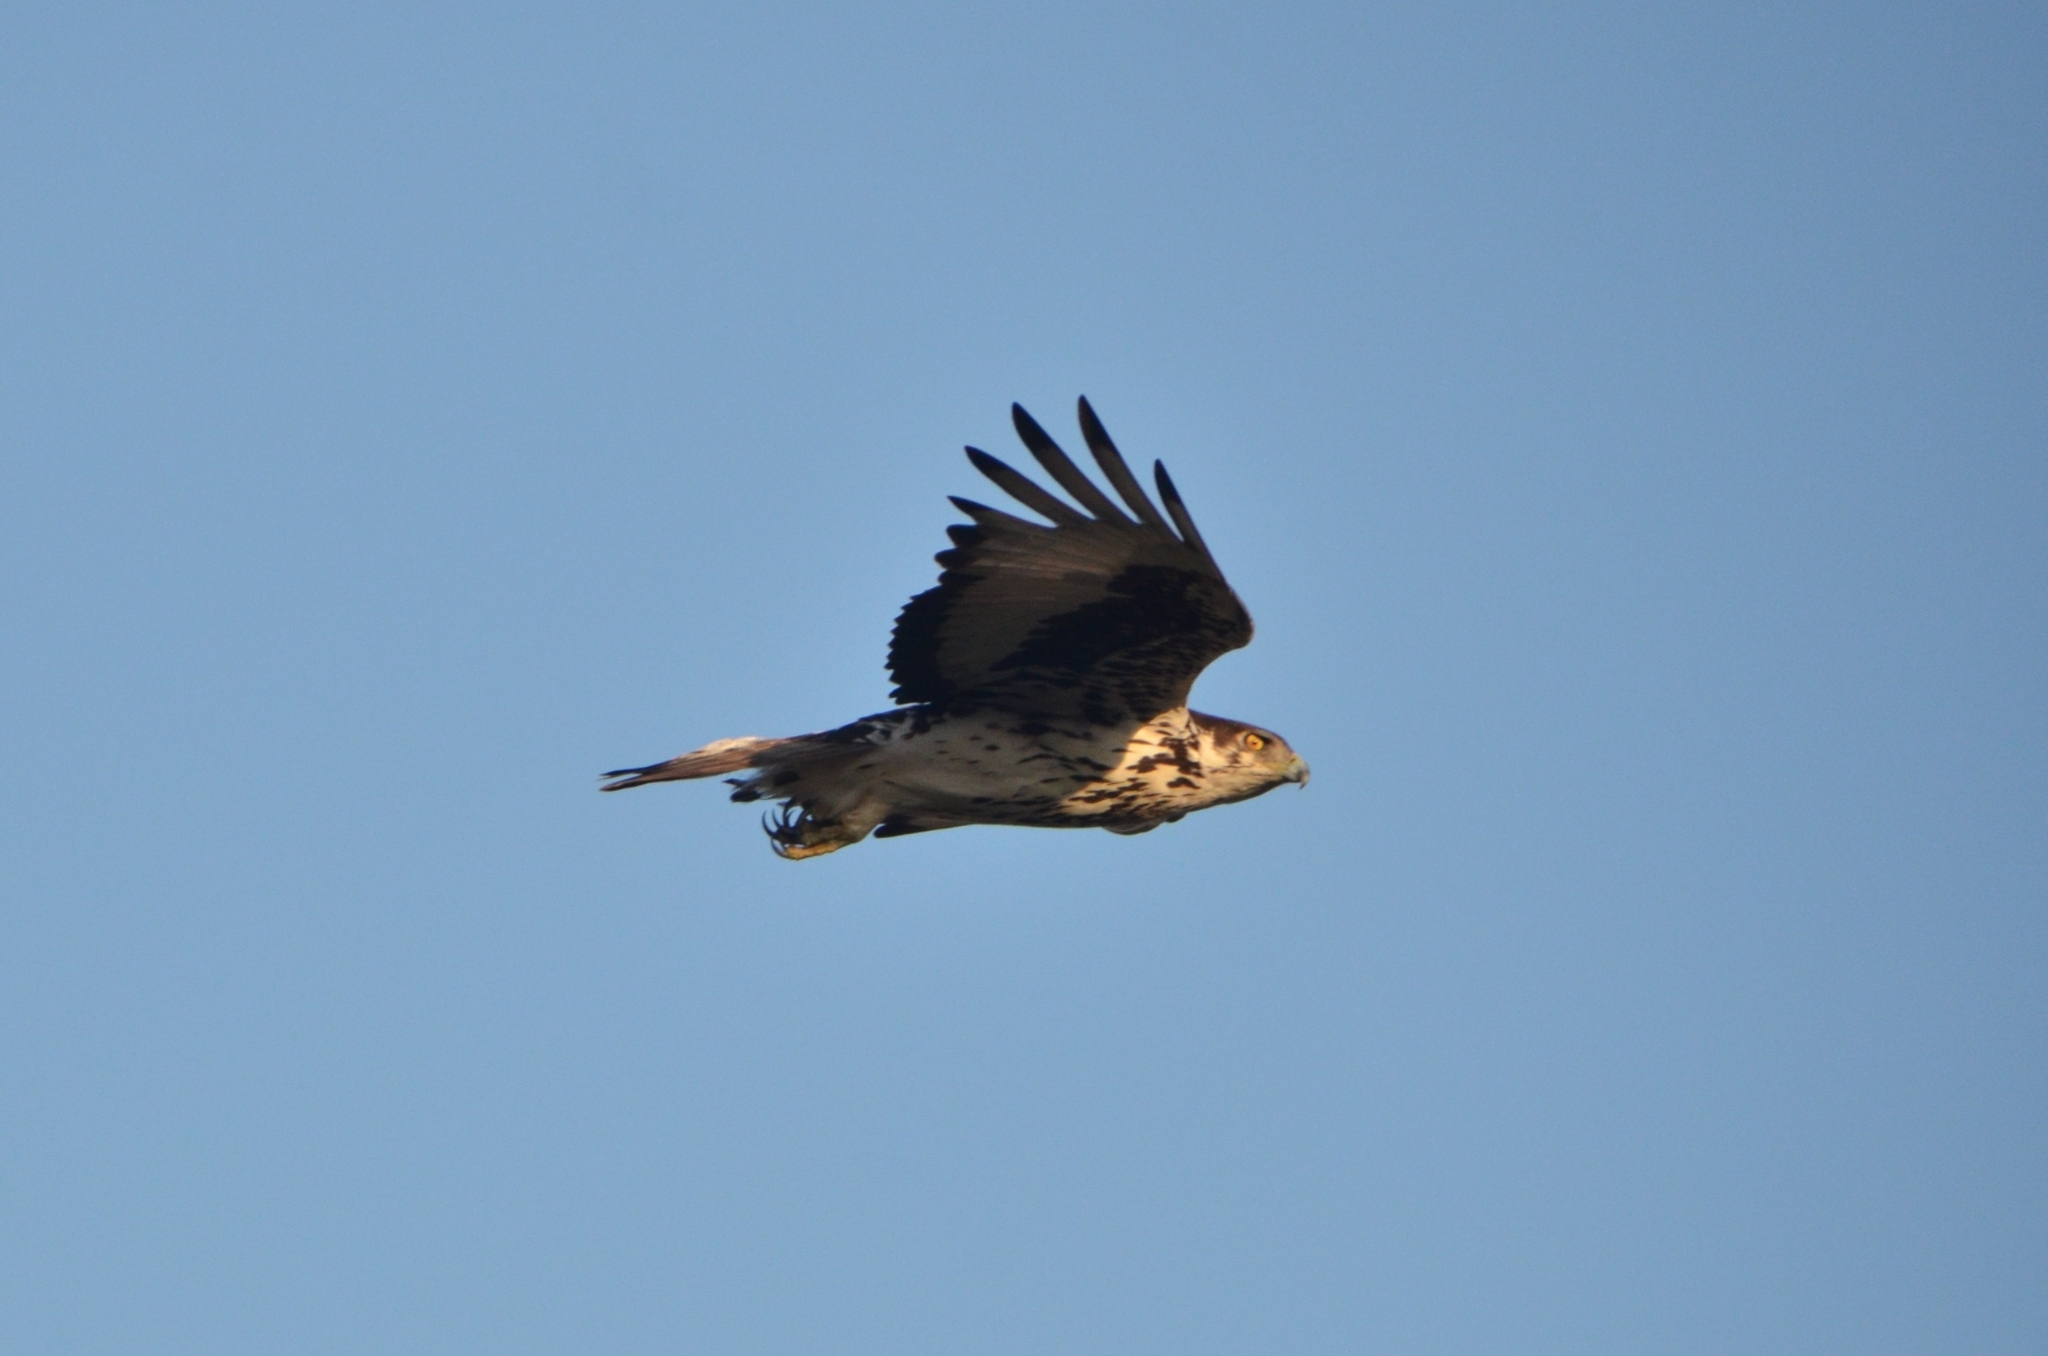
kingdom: Animalia
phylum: Chordata
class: Aves
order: Accipitriformes
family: Accipitridae
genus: Aquila
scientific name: Aquila spilogaster
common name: African hawk-eagle
